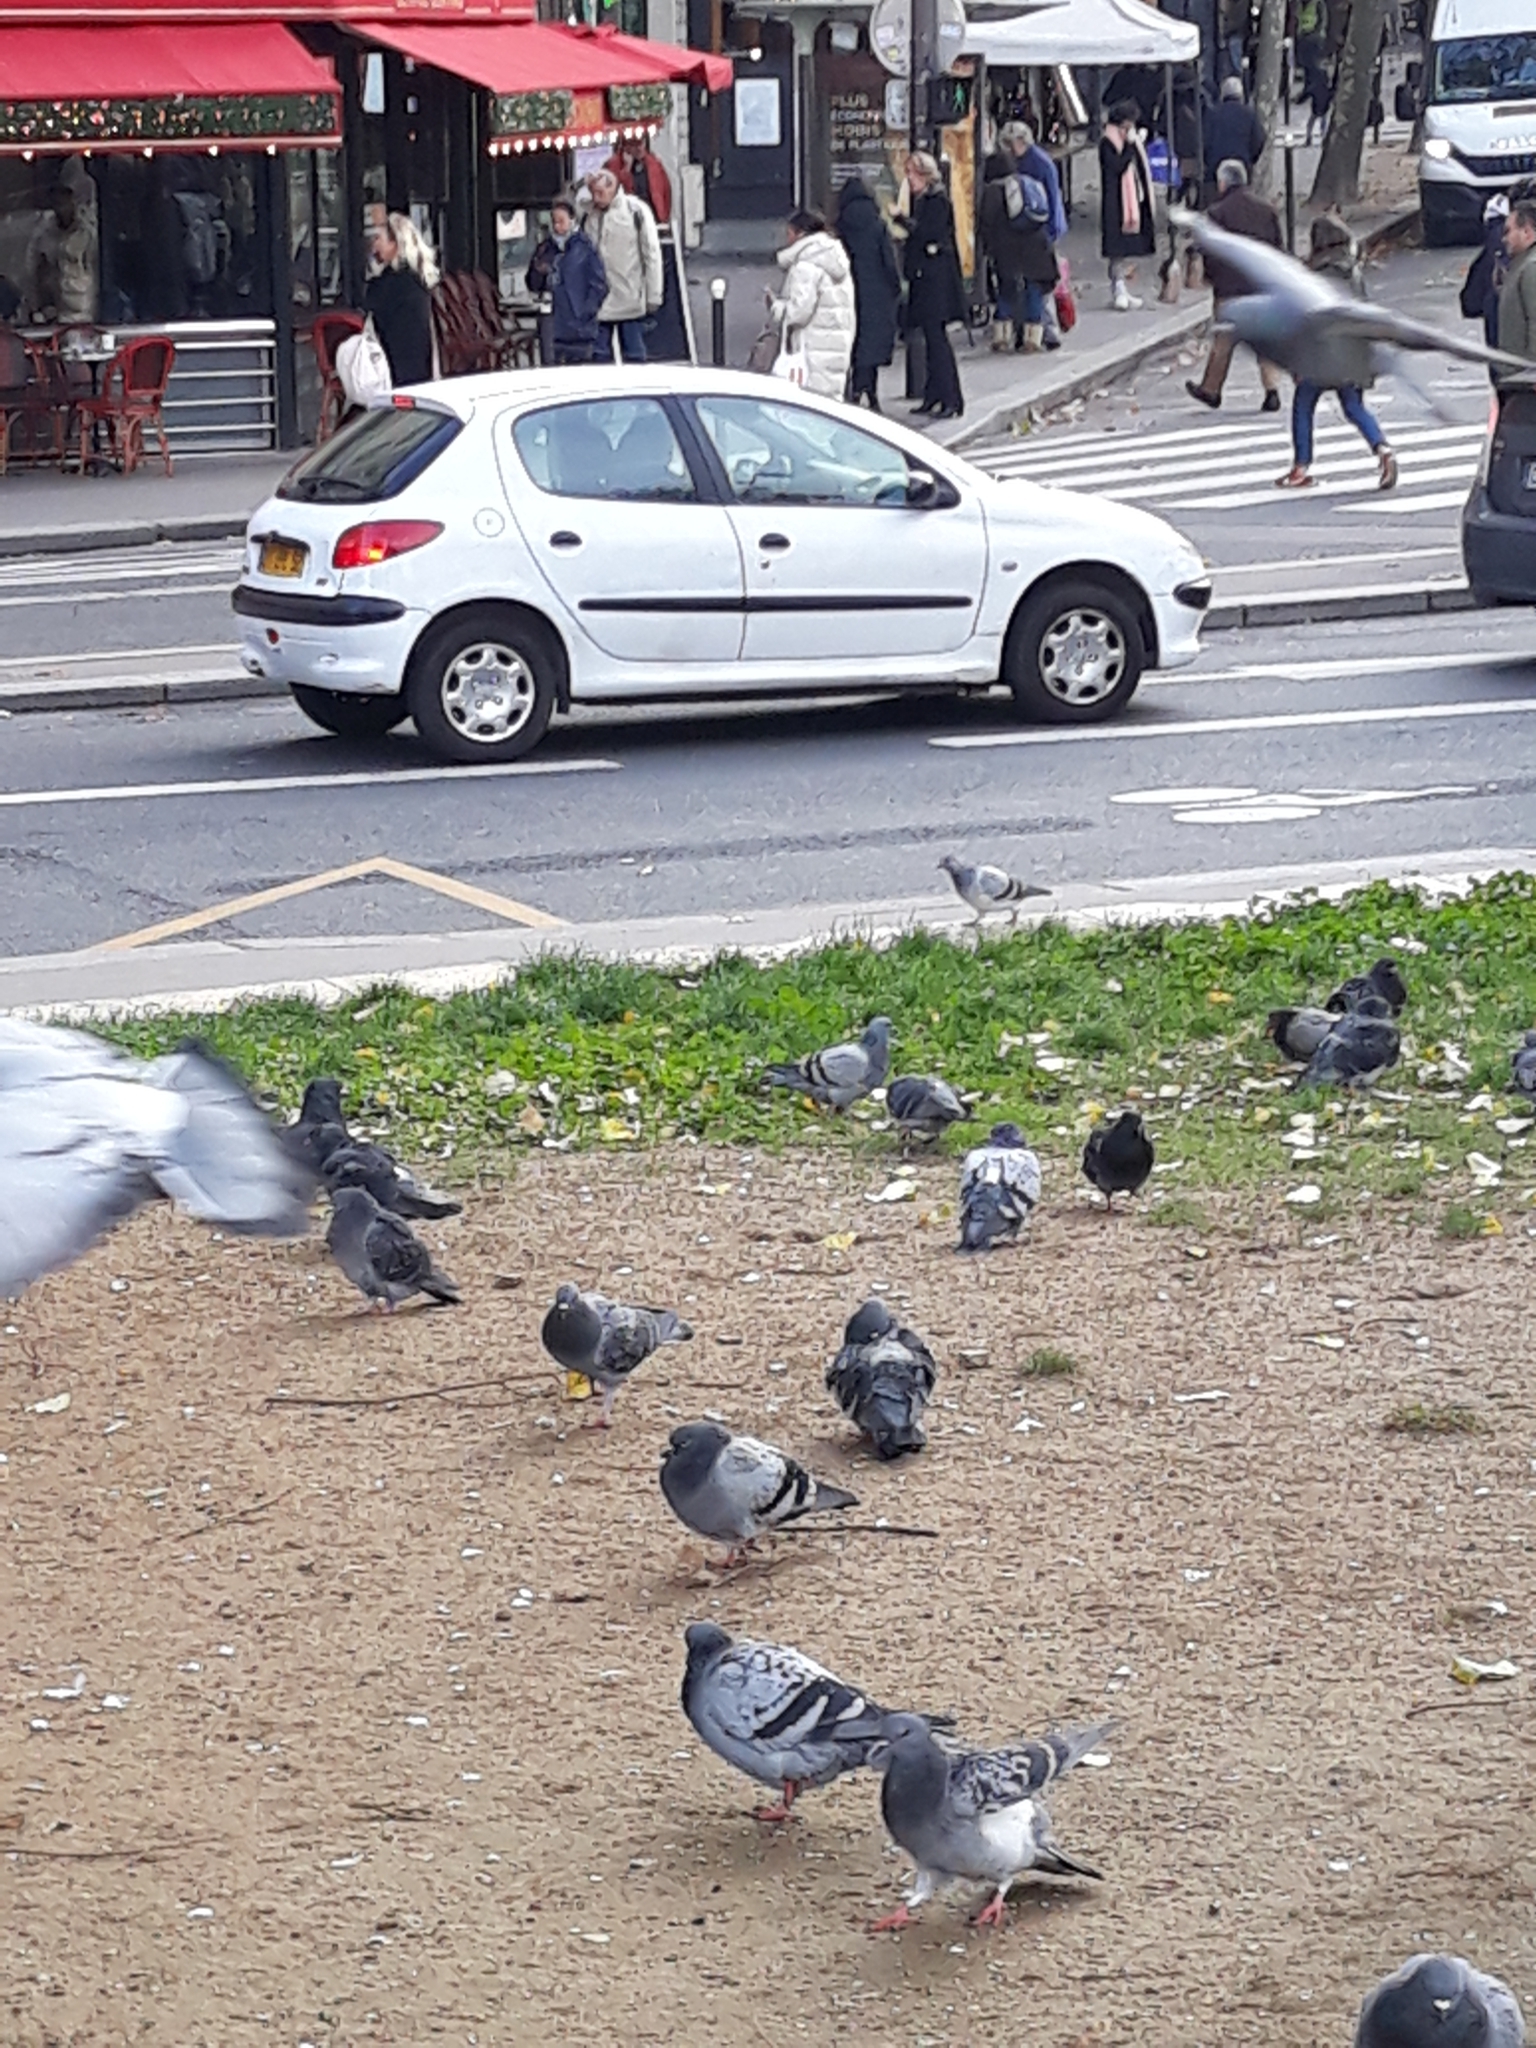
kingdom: Animalia
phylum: Chordata
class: Aves
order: Columbiformes
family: Columbidae
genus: Columba
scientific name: Columba livia
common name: Rock pigeon
